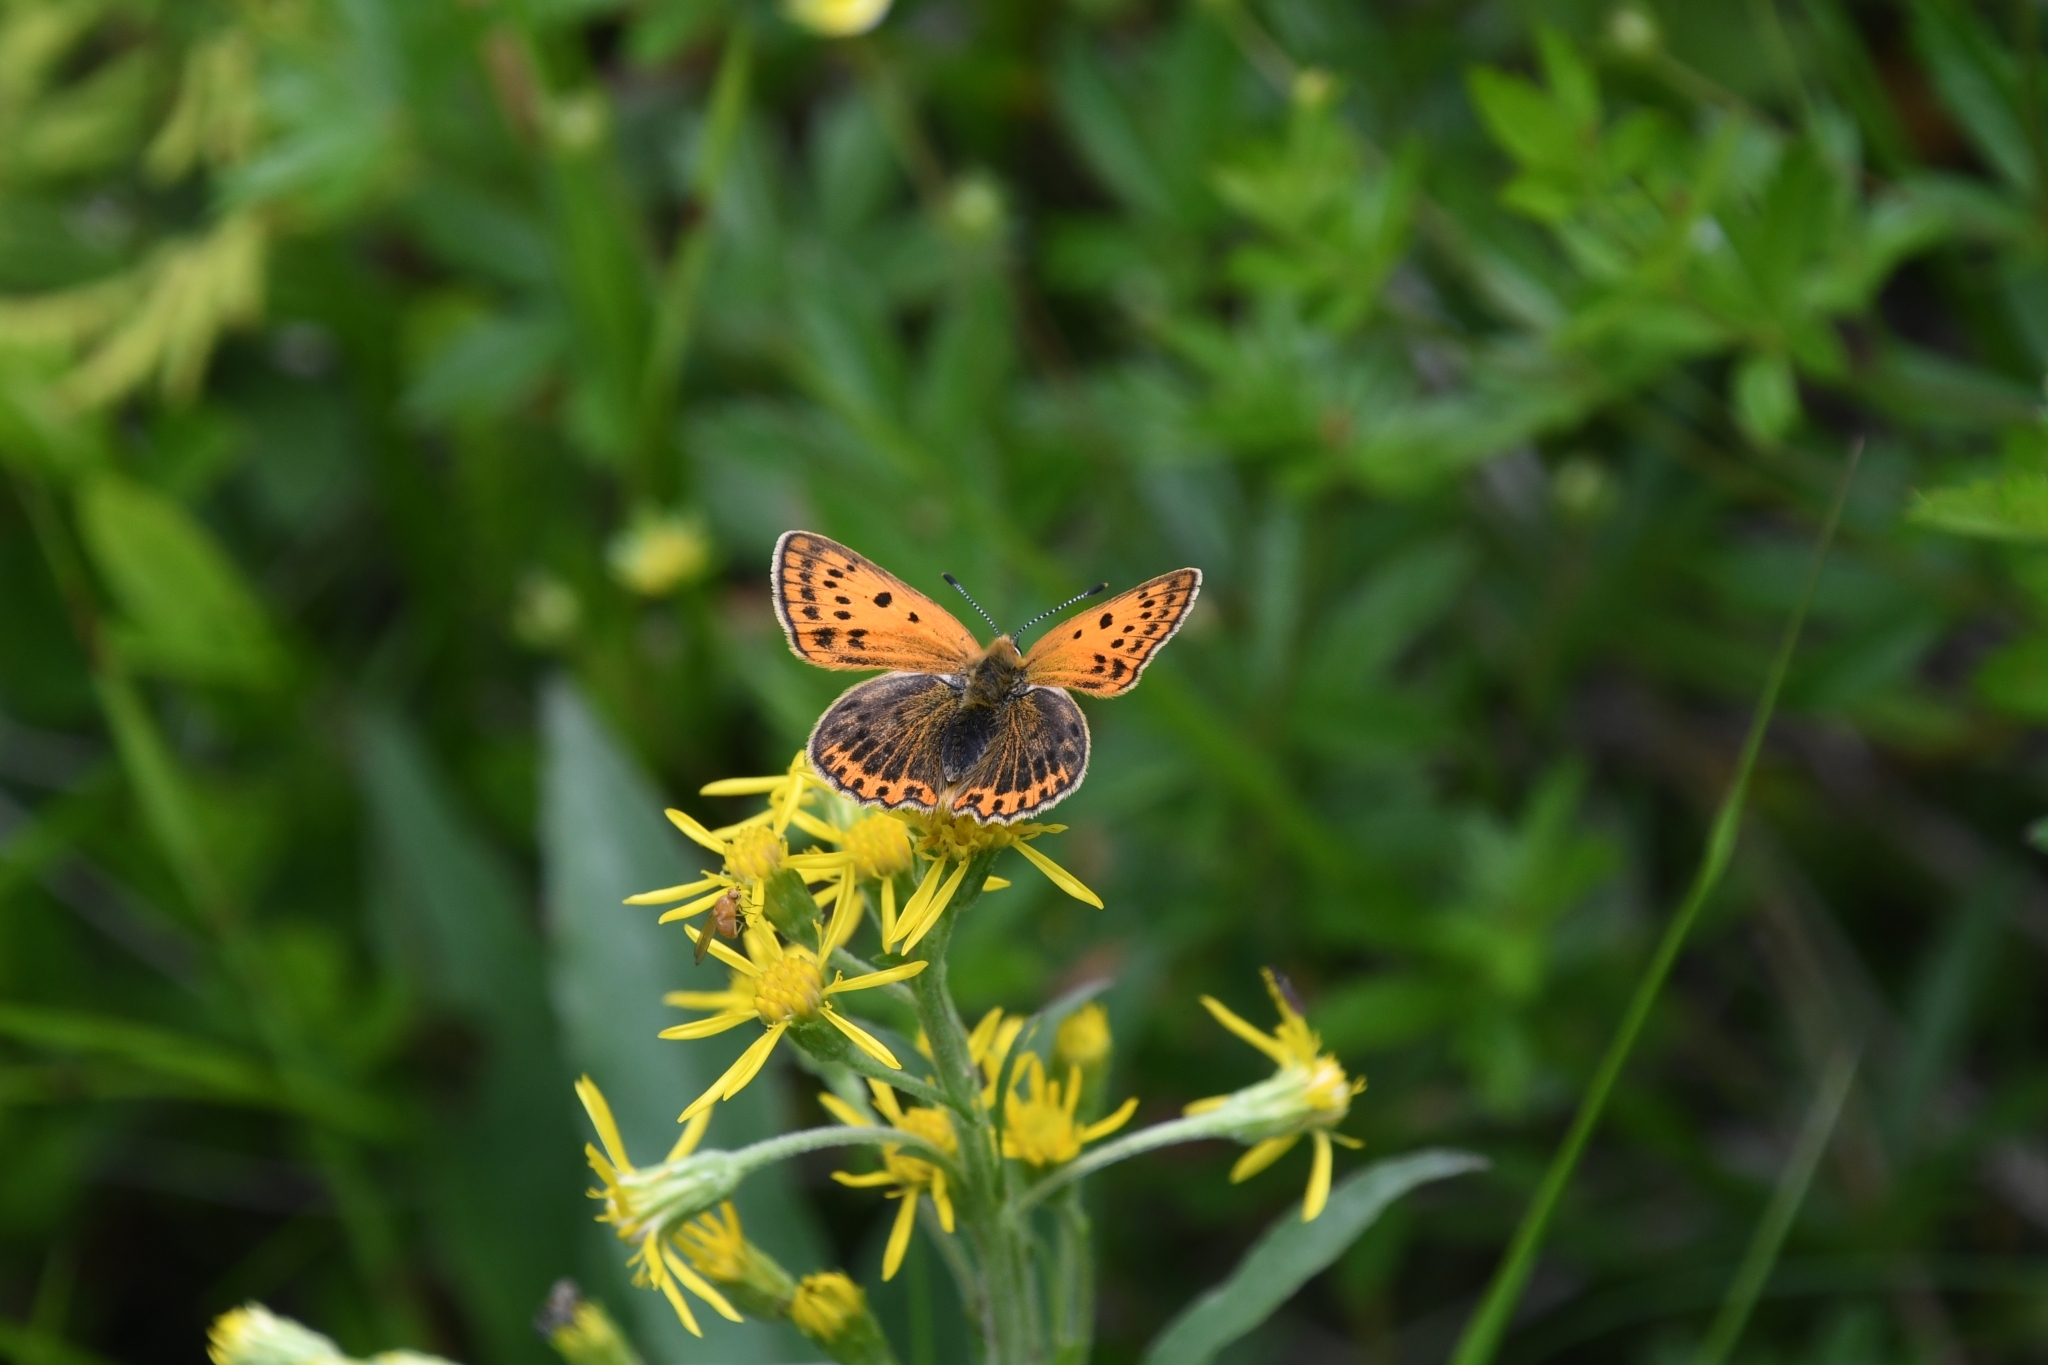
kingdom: Animalia
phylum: Arthropoda
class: Insecta
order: Lepidoptera
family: Lycaenidae
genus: Lycaena
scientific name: Lycaena phlaeas
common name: Small copper
